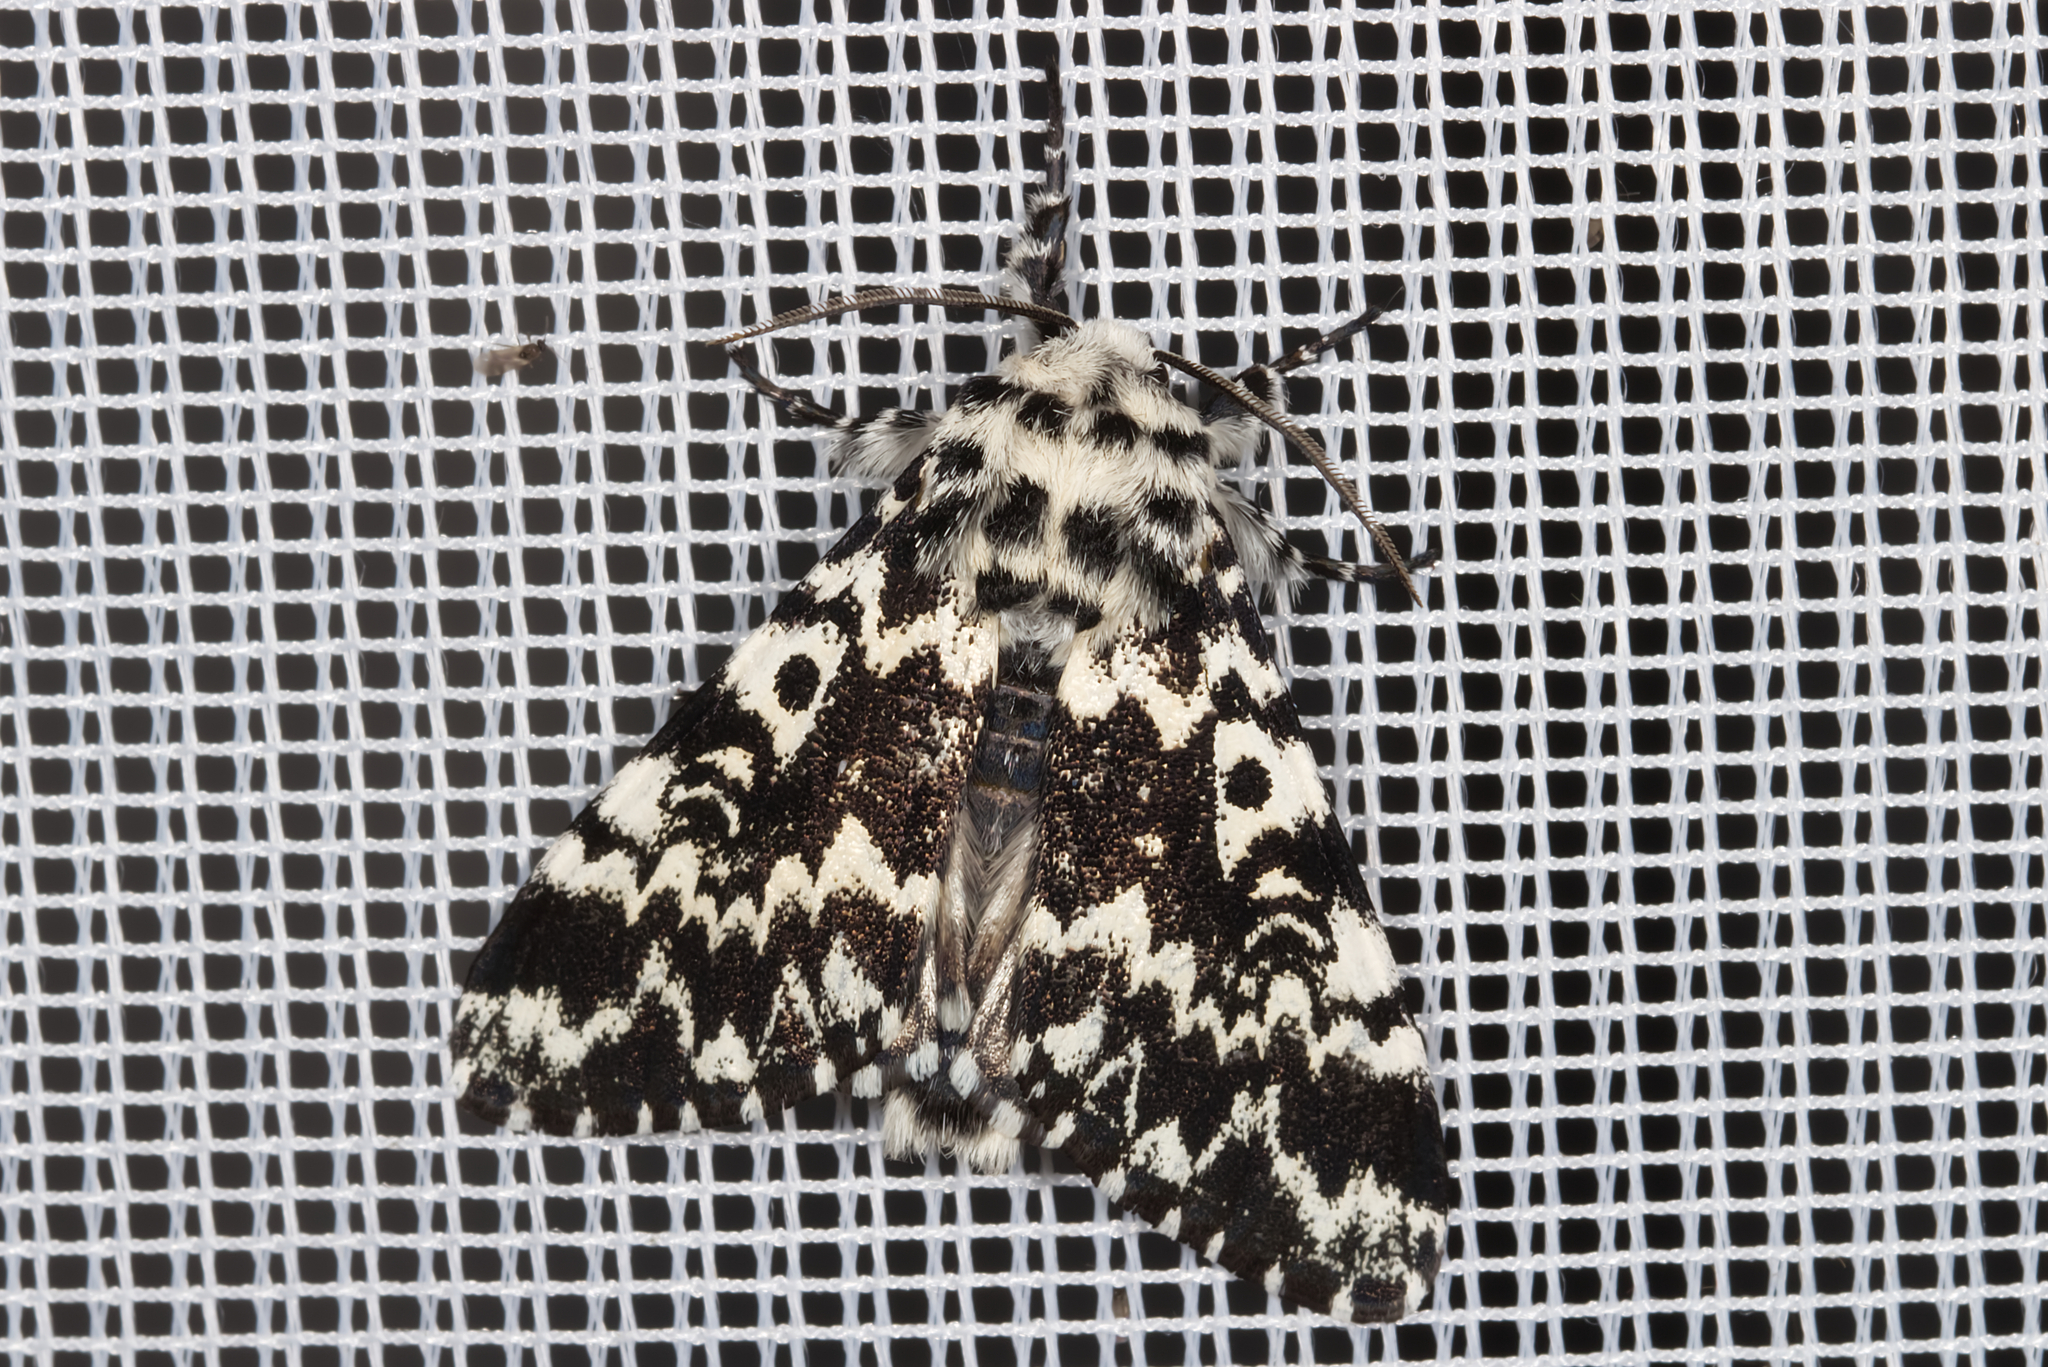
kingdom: Animalia
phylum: Arthropoda
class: Insecta
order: Lepidoptera
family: Noctuidae
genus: Panthea
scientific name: Panthea coenobita
